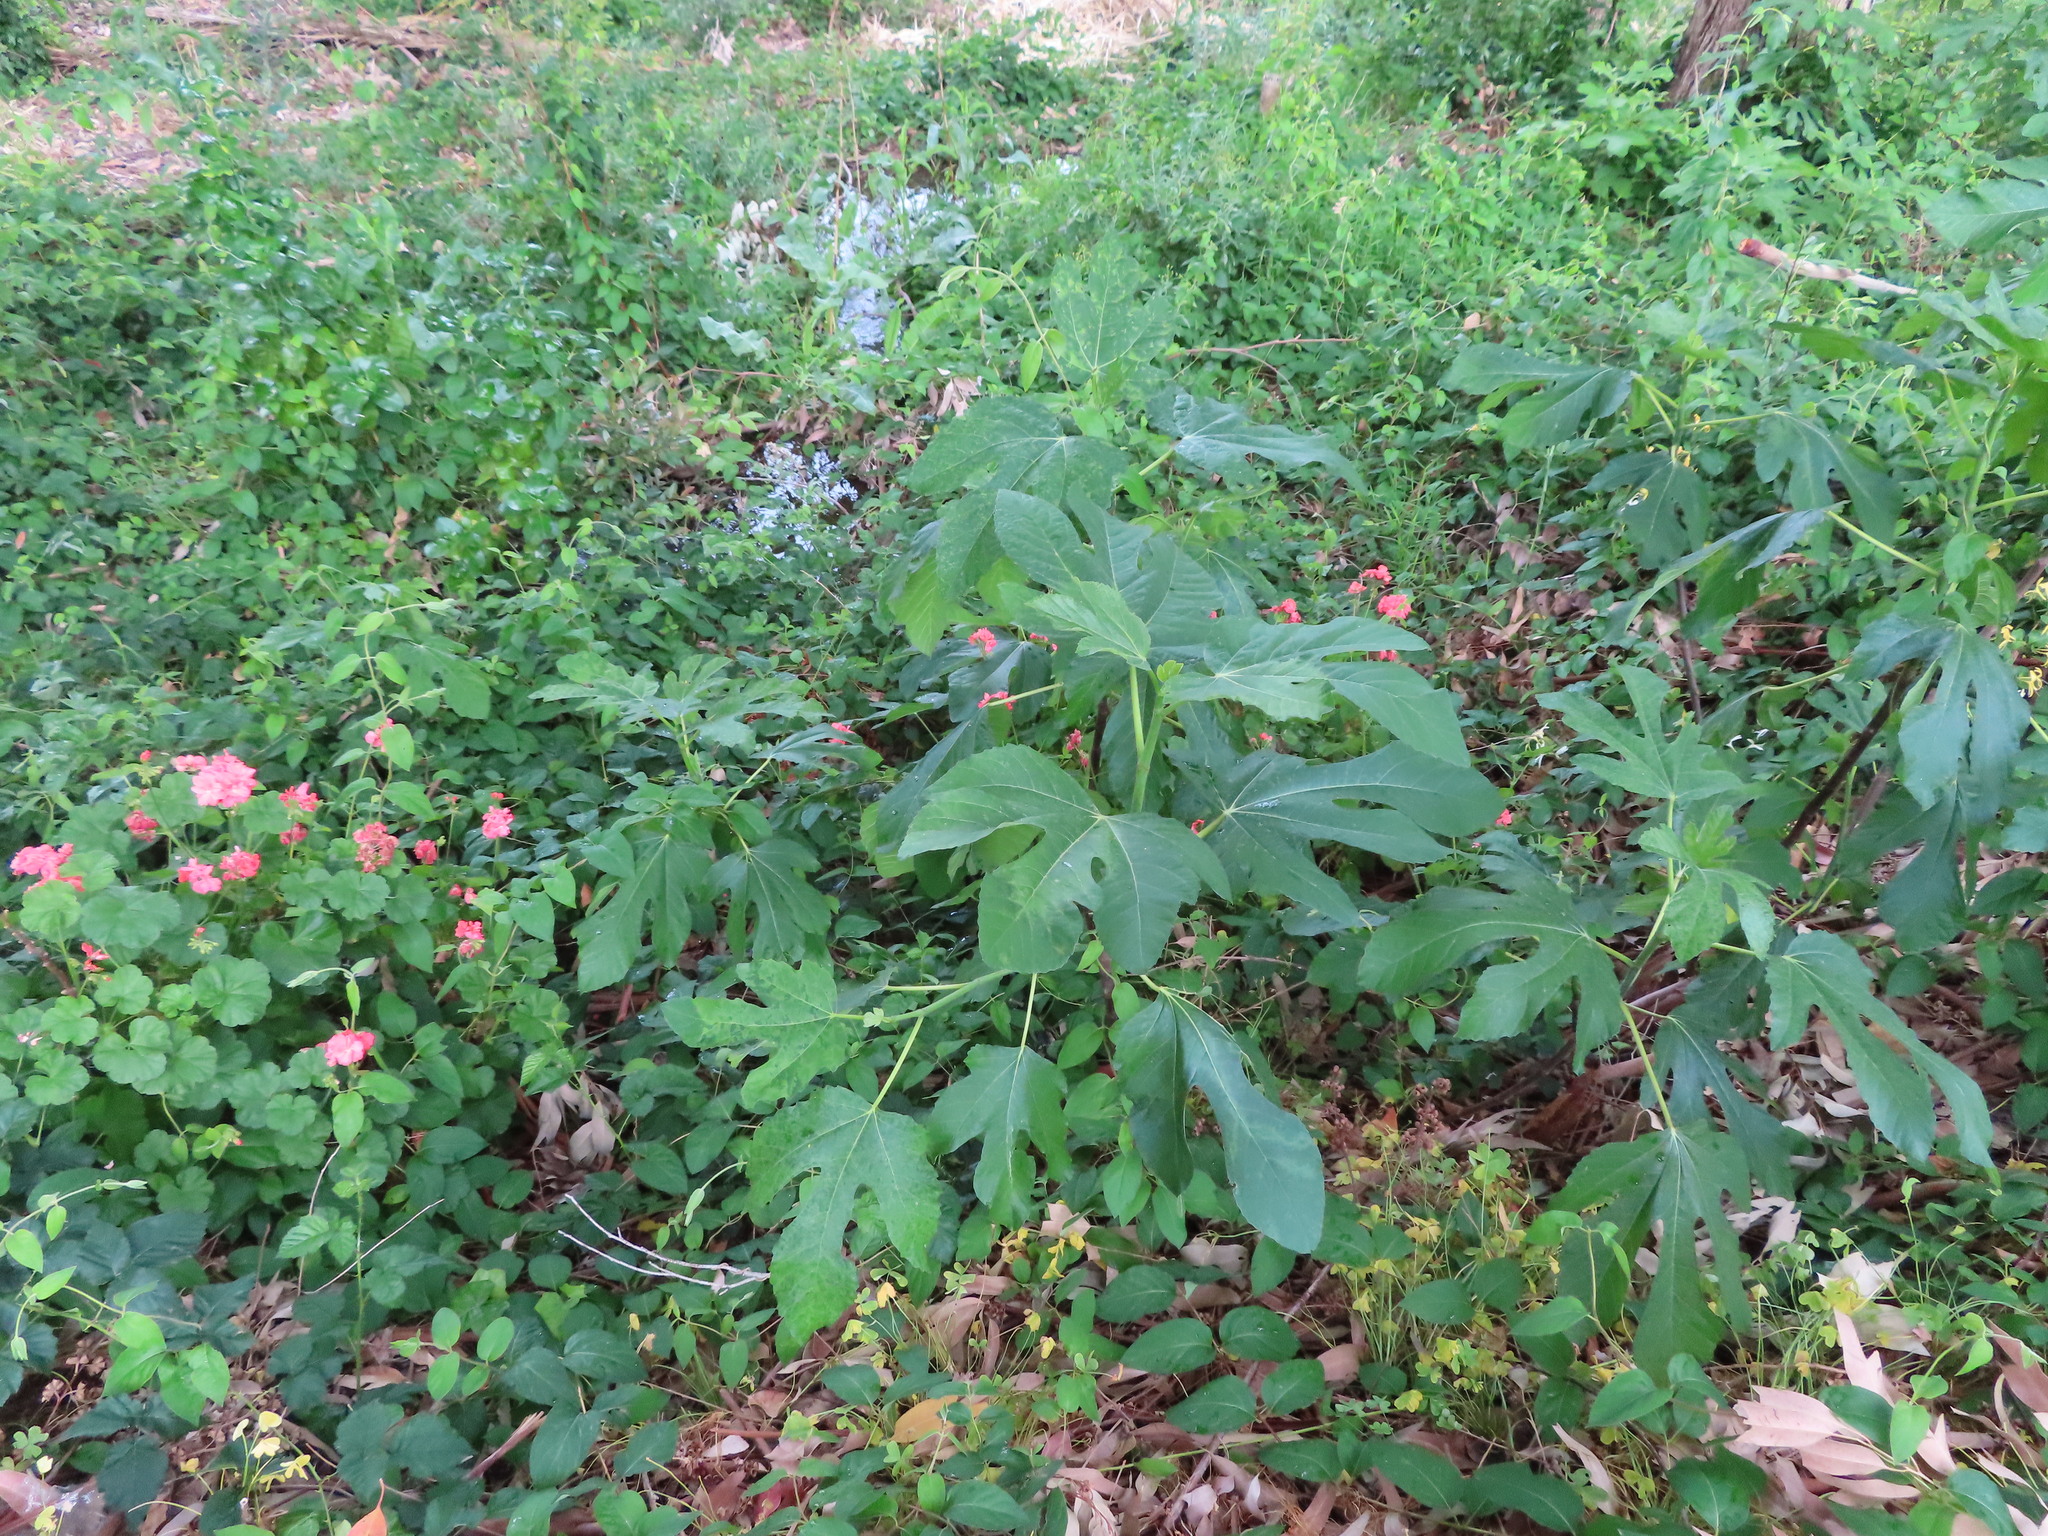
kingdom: Plantae
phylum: Tracheophyta
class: Magnoliopsida
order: Rosales
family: Moraceae
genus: Ficus
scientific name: Ficus carica
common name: Fig
